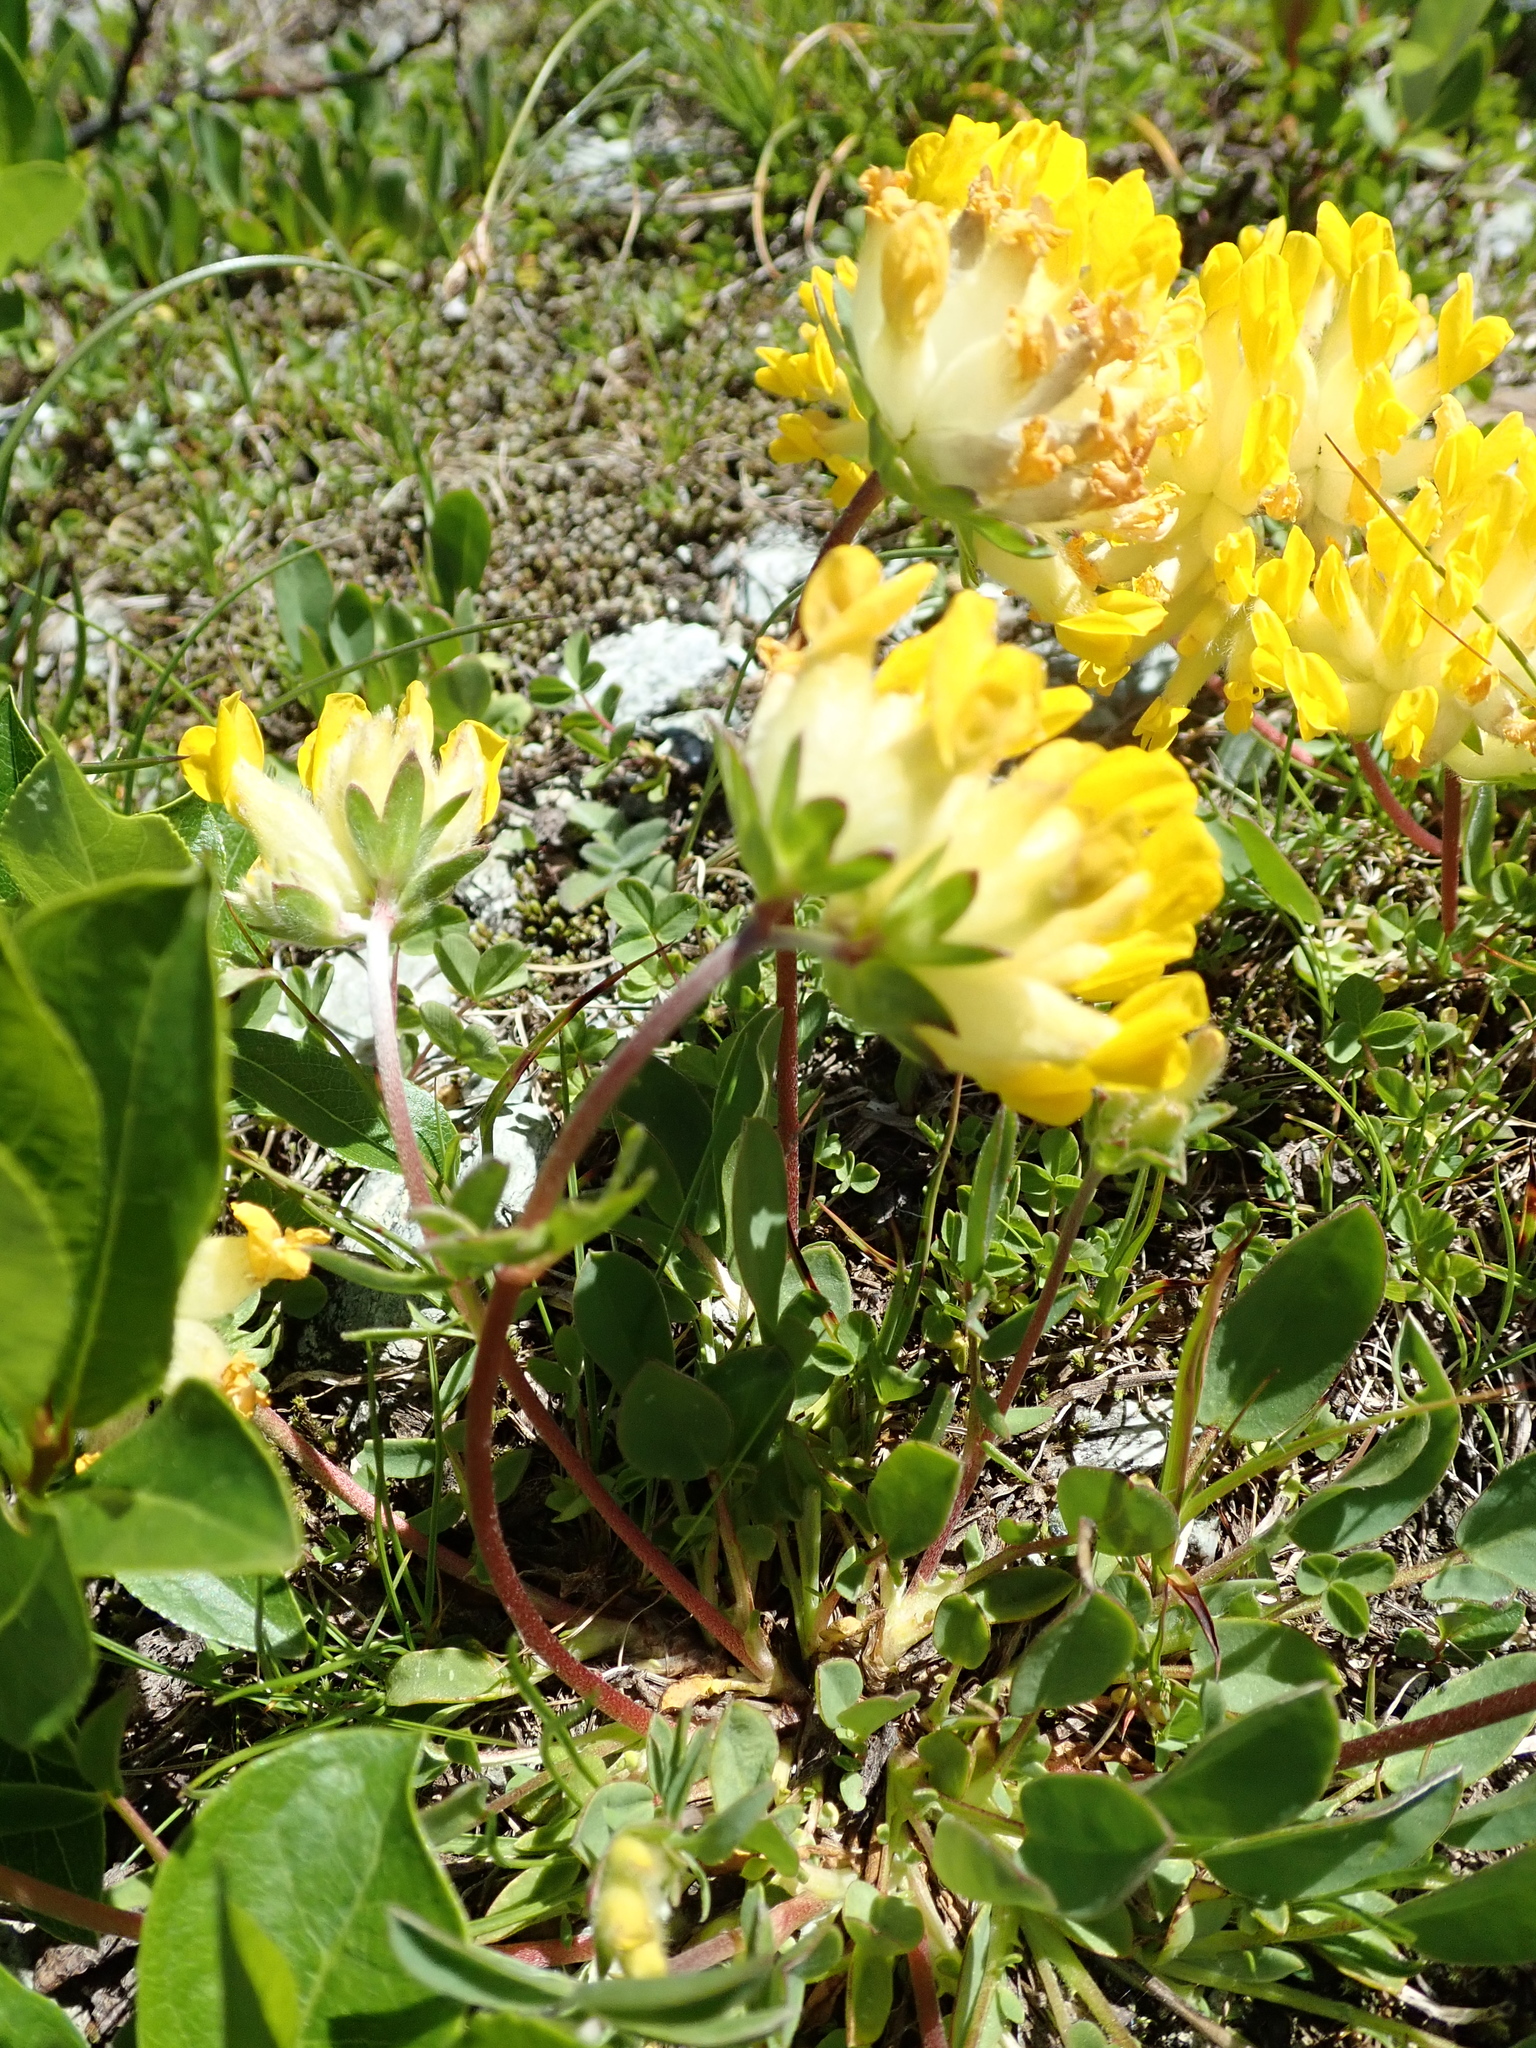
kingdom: Plantae
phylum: Tracheophyta
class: Magnoliopsida
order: Fabales
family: Fabaceae
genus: Anthyllis
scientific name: Anthyllis vulneraria
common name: Kidney vetch
